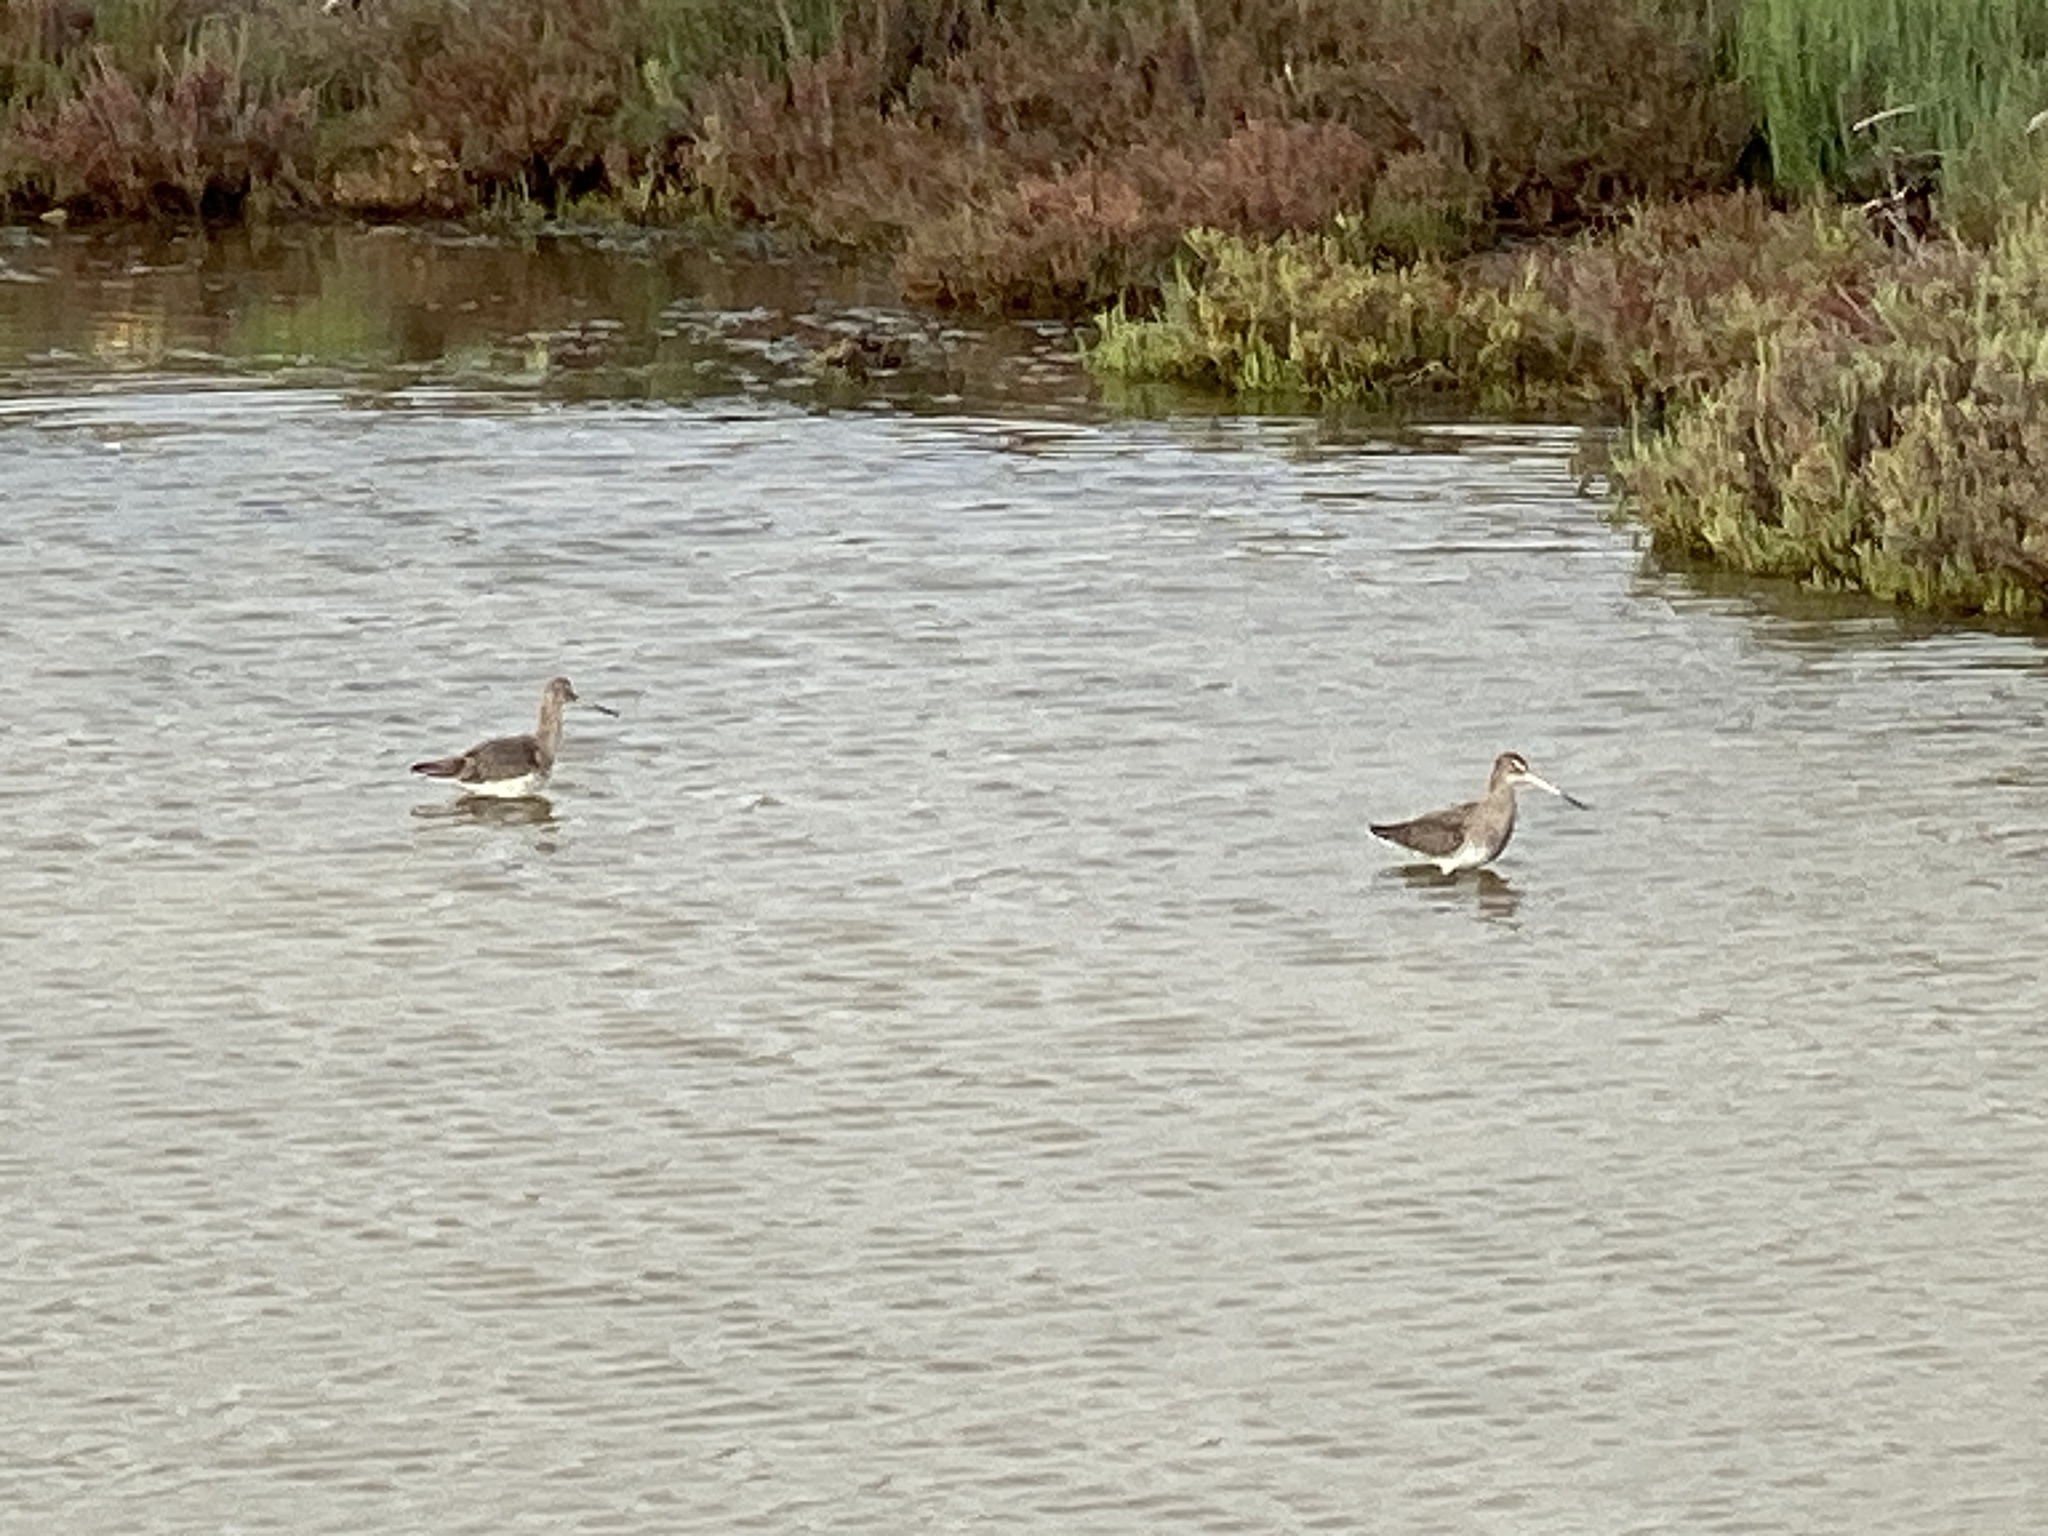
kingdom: Animalia
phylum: Chordata
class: Aves
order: Charadriiformes
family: Scolopacidae
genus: Limosa
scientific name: Limosa limosa
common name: Black-tailed godwit
